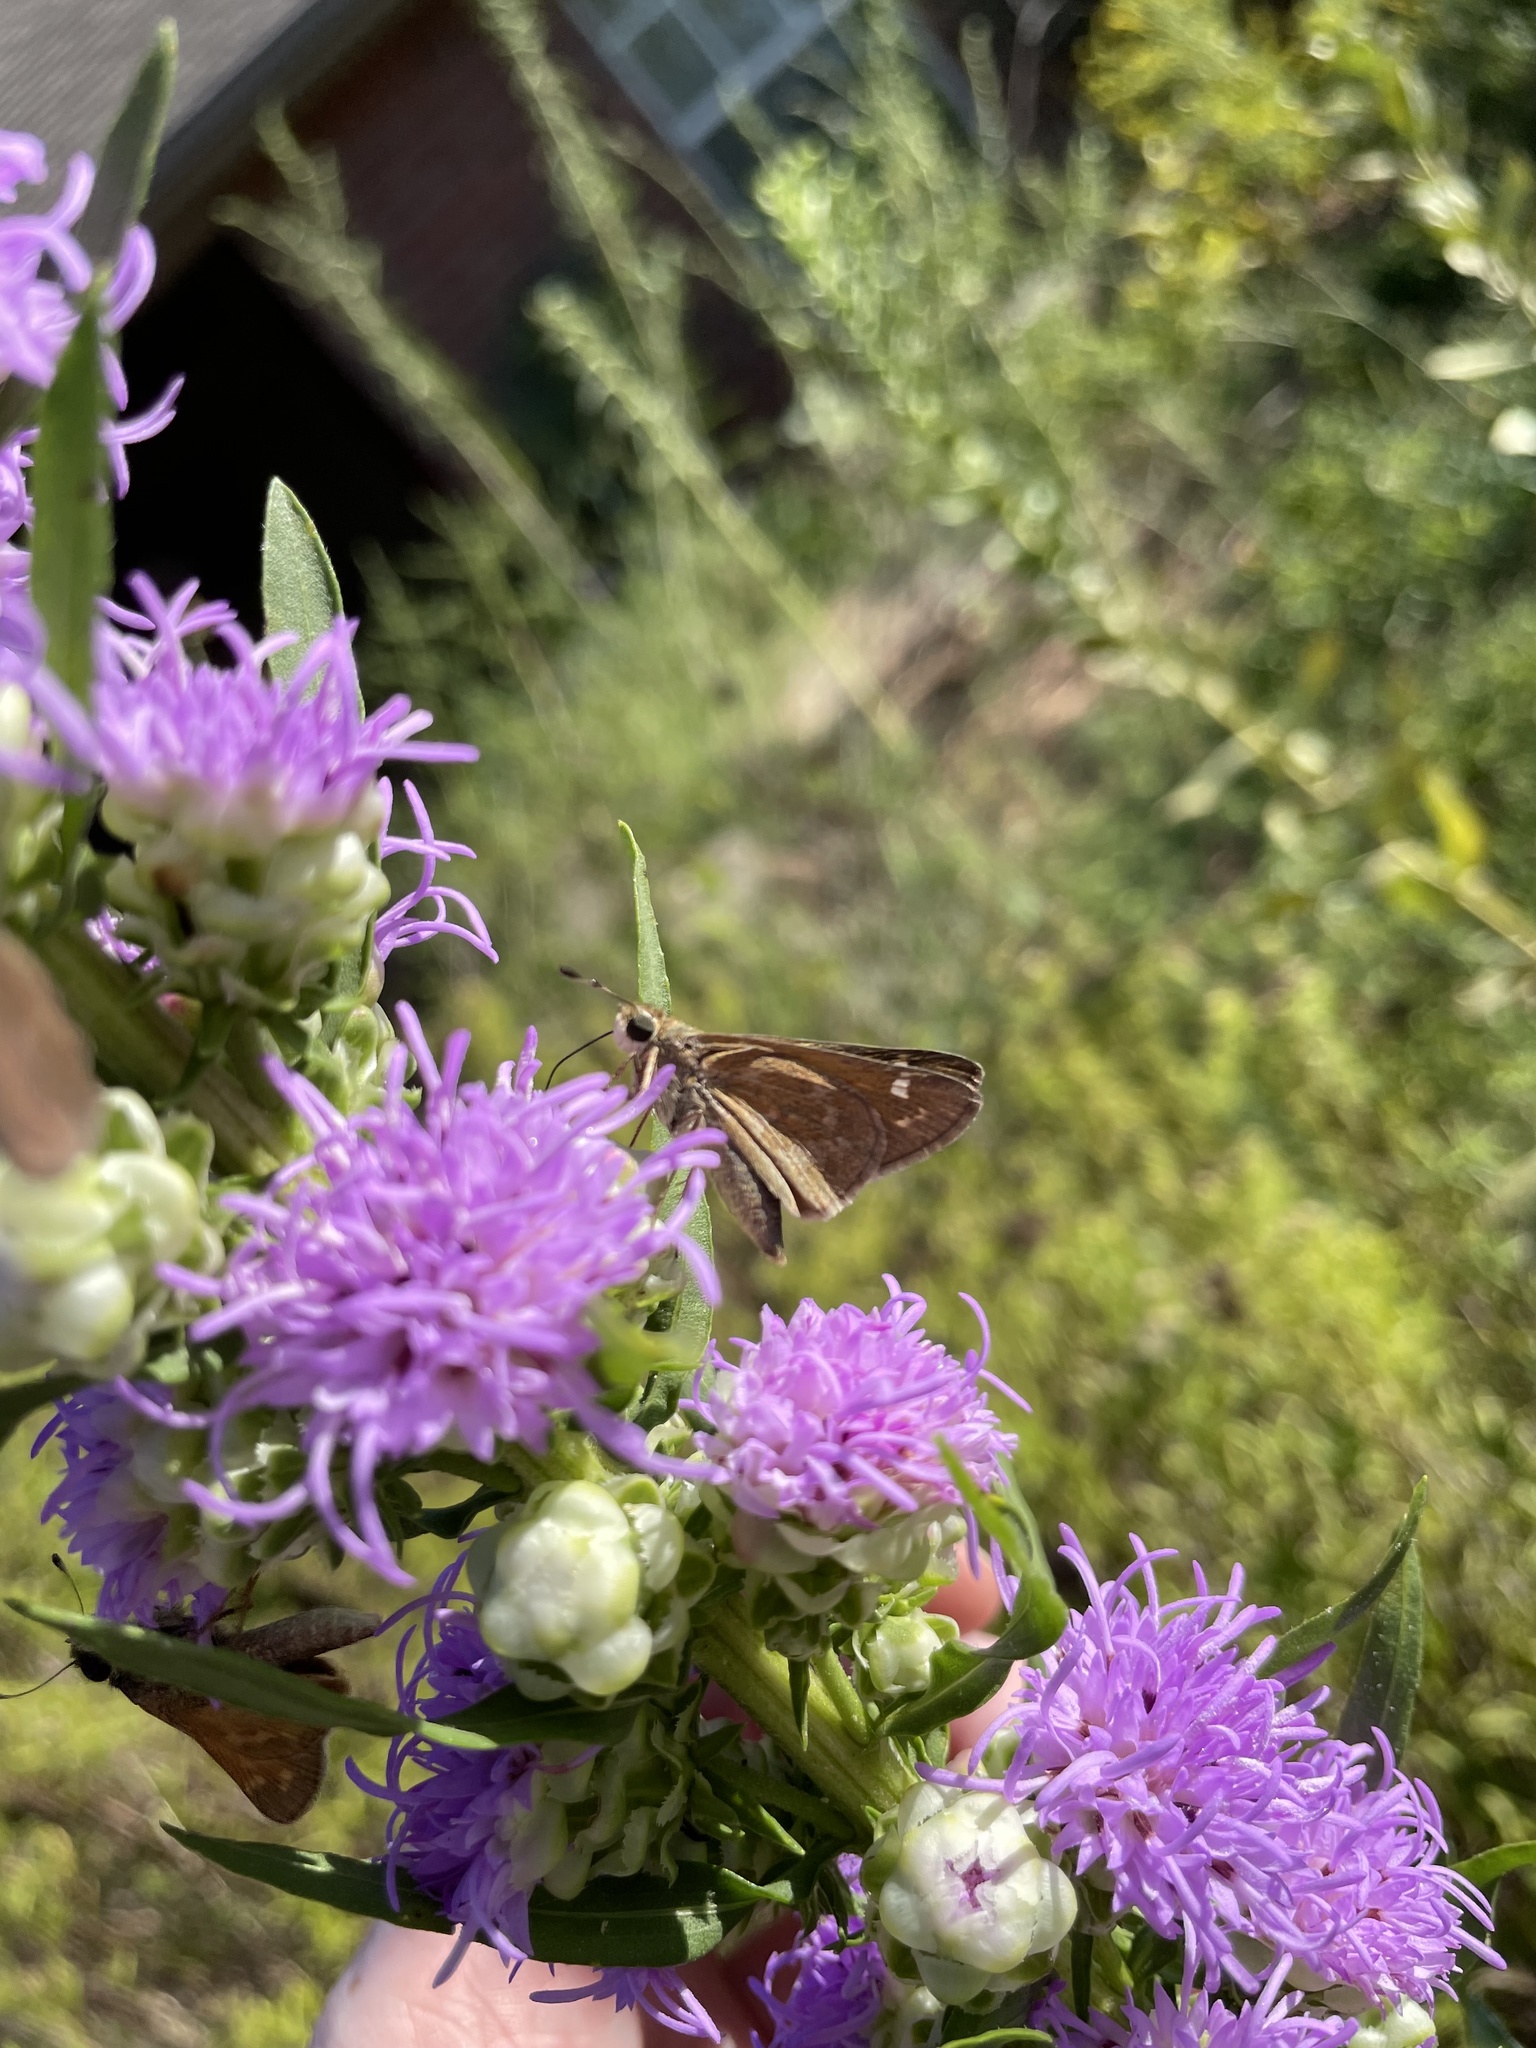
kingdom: Animalia
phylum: Arthropoda
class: Insecta
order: Lepidoptera
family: Hesperiidae
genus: Atalopedes
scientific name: Atalopedes
